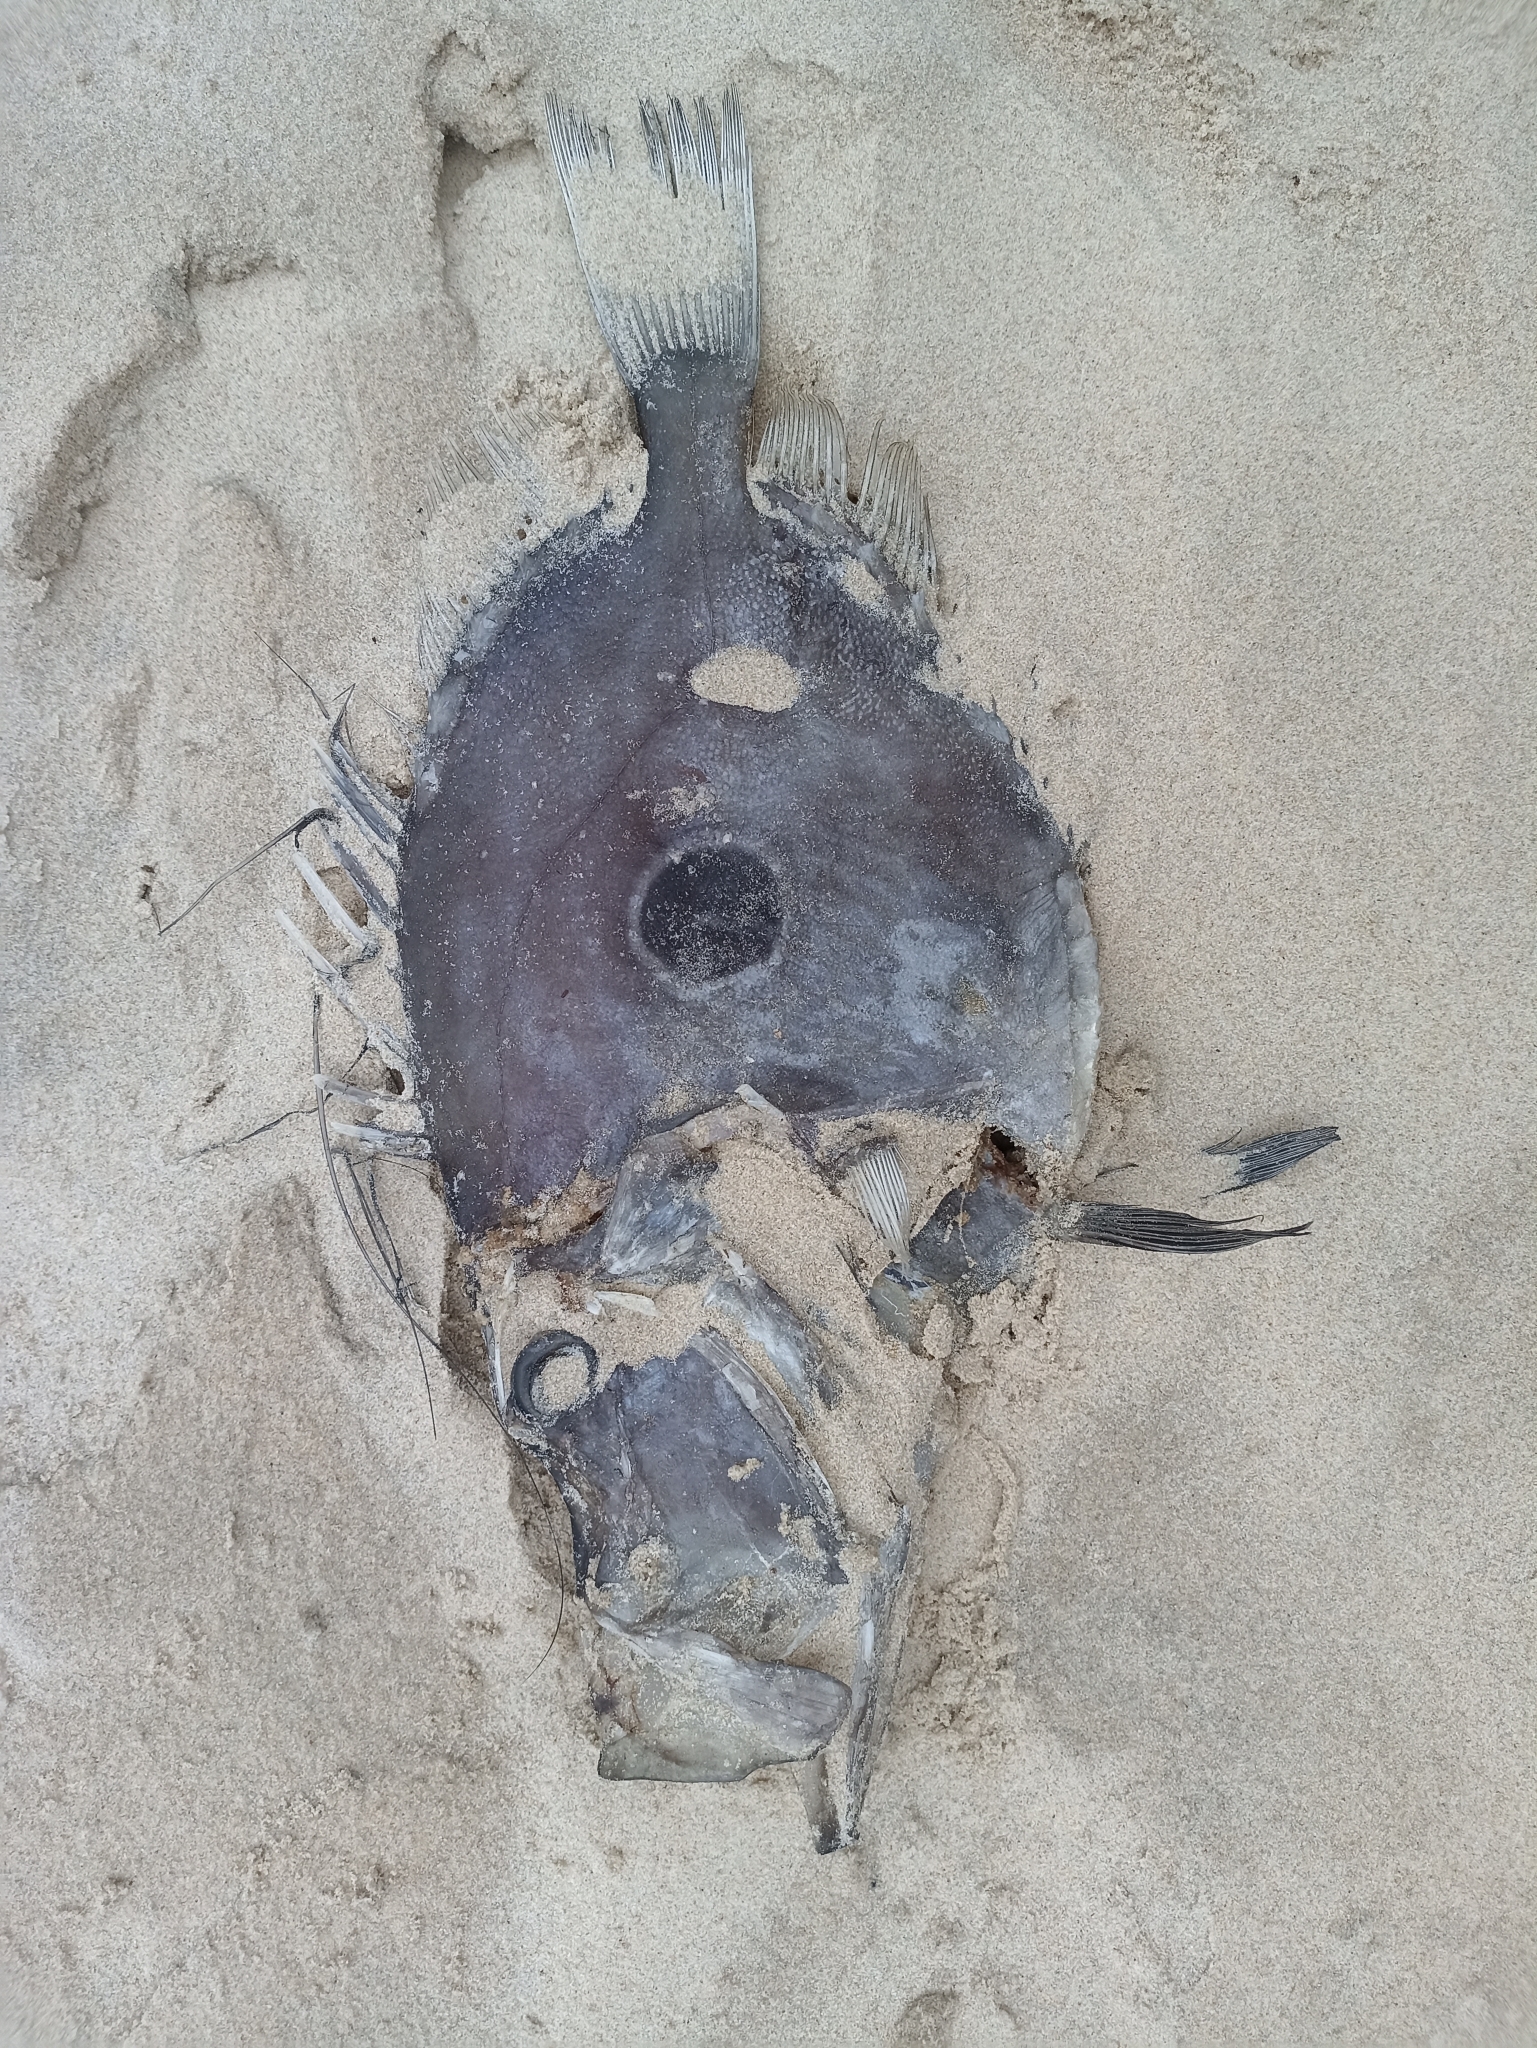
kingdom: Animalia
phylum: Chordata
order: Zeiformes
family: Zeidae
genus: Zeus
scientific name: Zeus faber
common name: John dory
